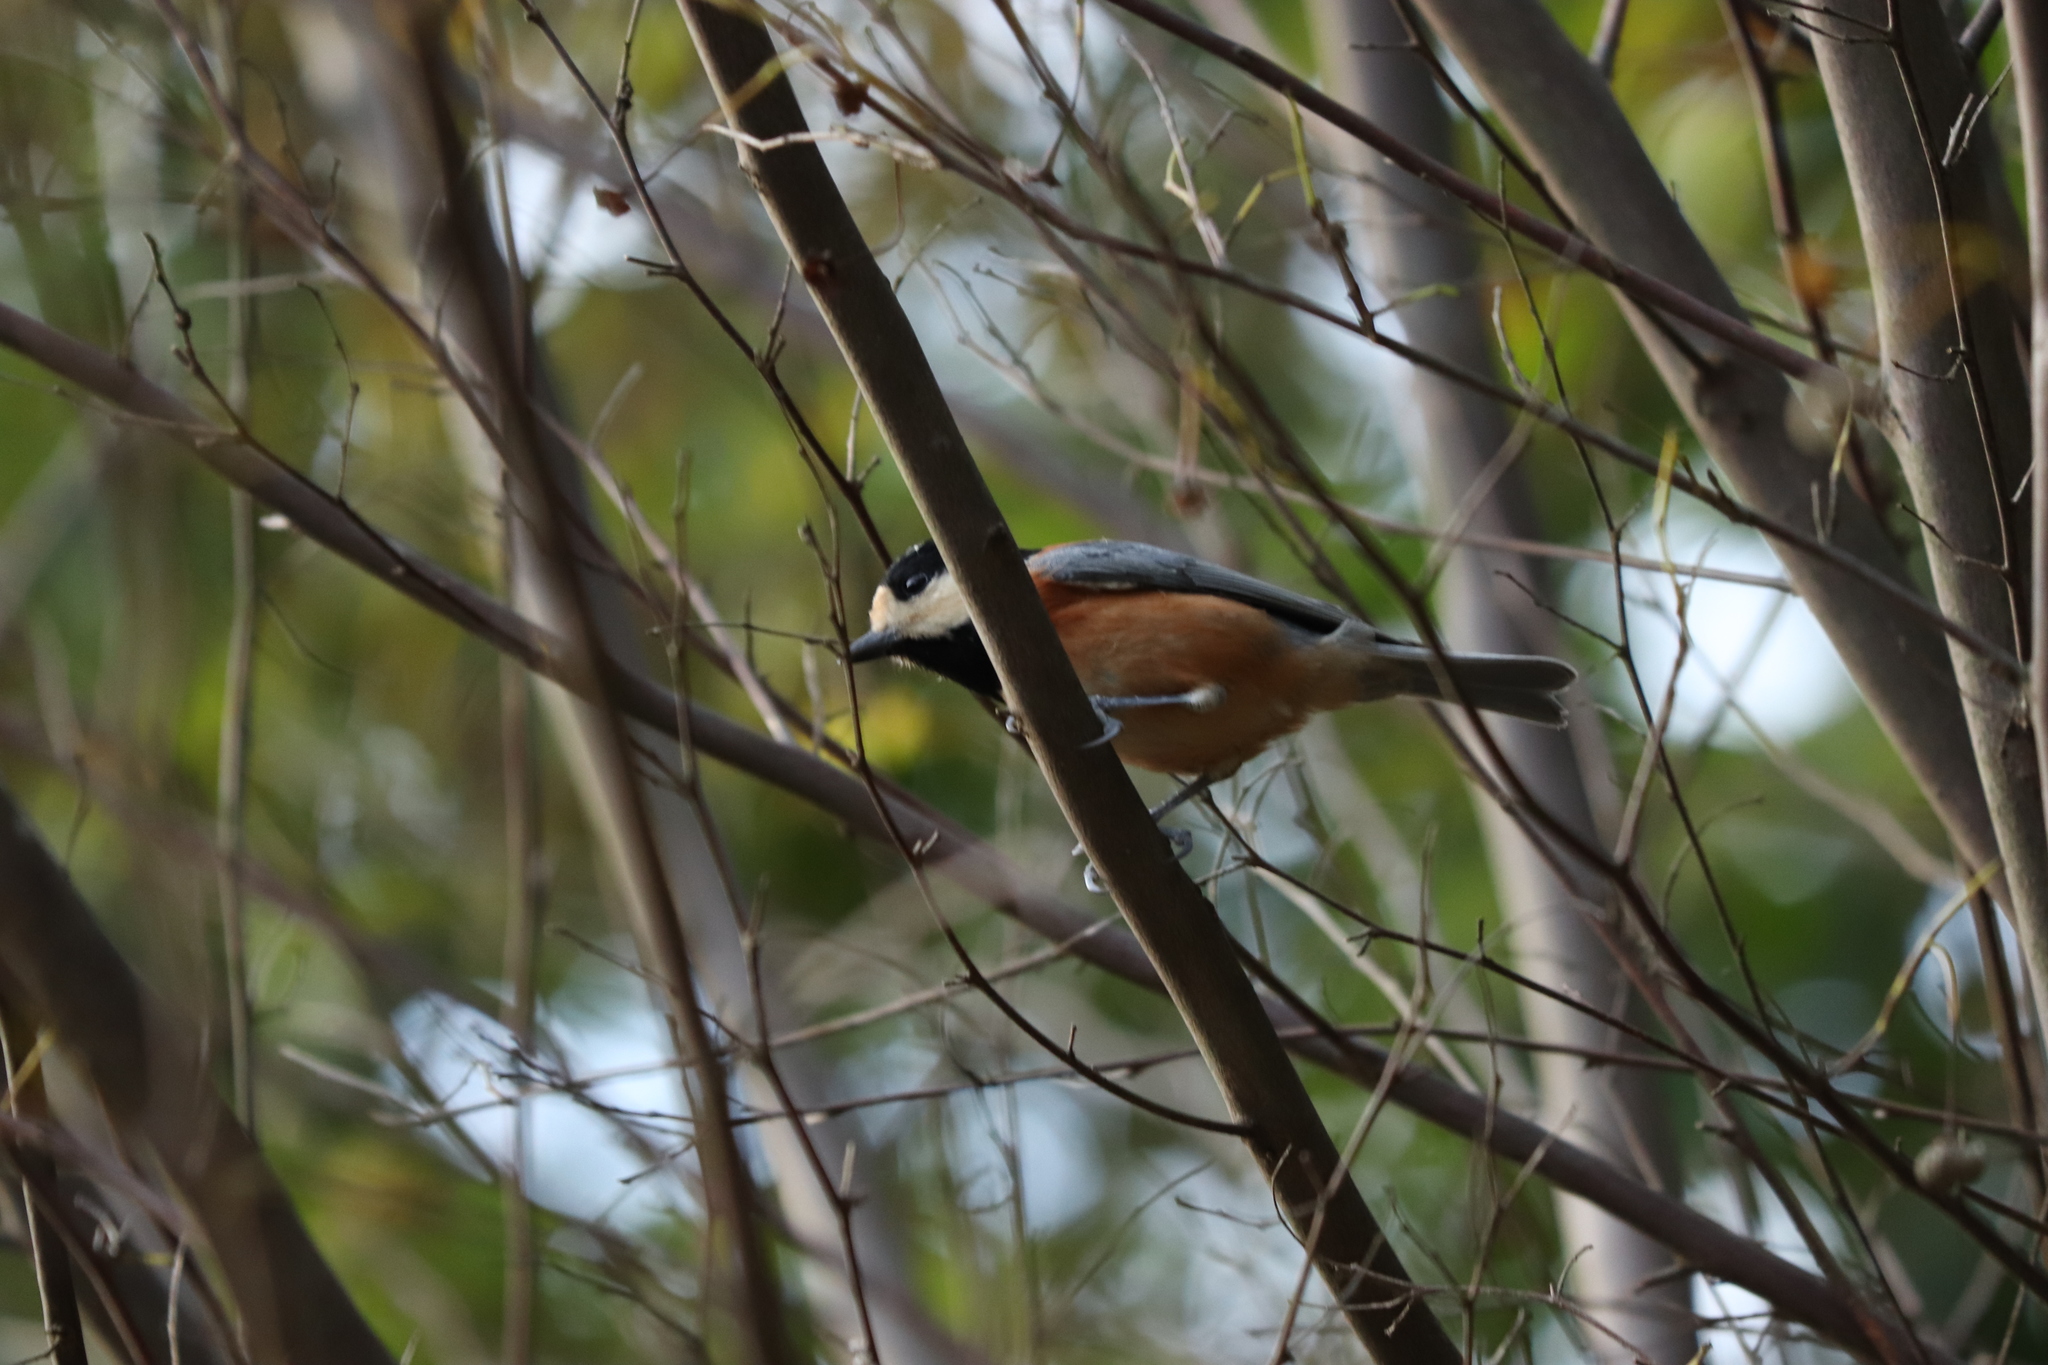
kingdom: Animalia
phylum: Chordata
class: Aves
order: Passeriformes
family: Paridae
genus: Poecile
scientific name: Poecile varius
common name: Varied tit
